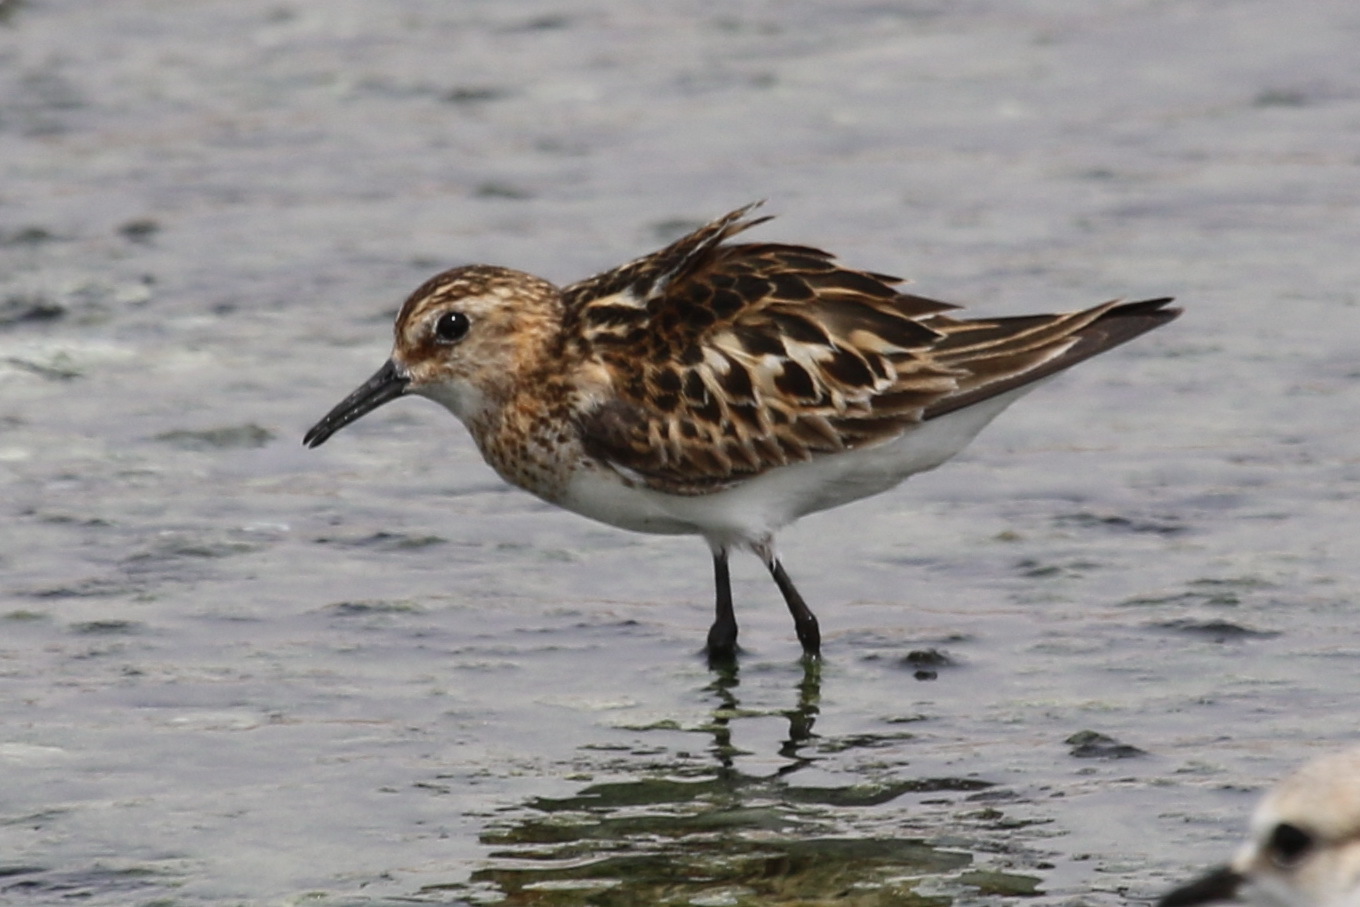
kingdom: Animalia
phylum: Chordata
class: Aves
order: Charadriiformes
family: Scolopacidae
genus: Calidris
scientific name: Calidris minuta
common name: Little stint
